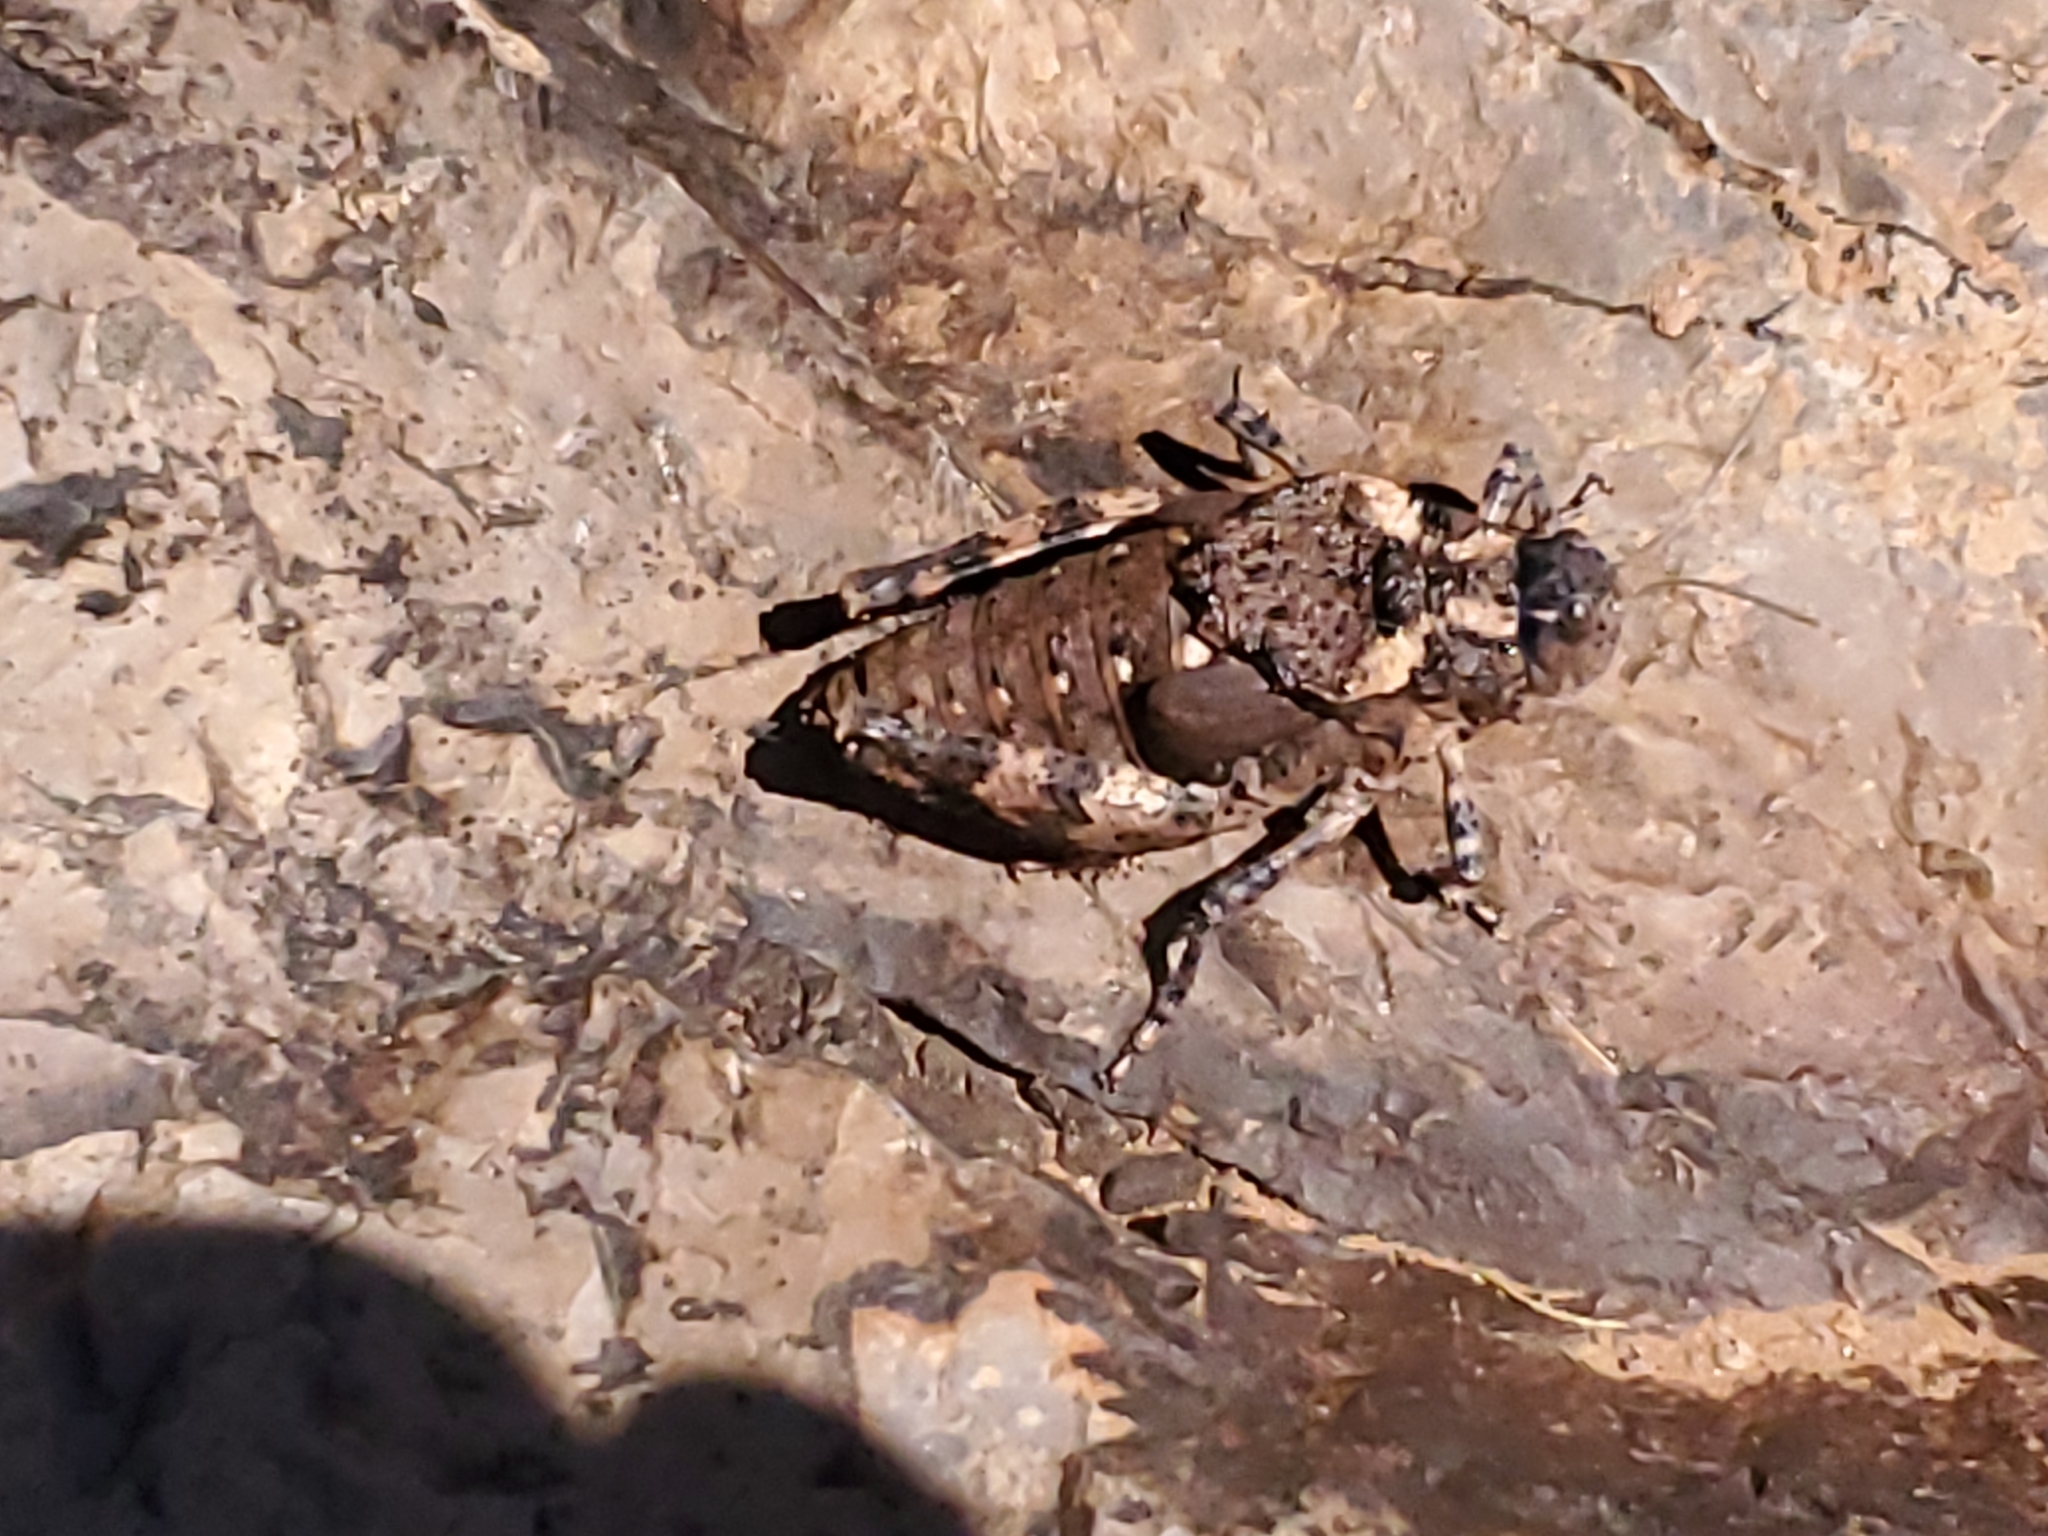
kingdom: Animalia
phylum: Arthropoda
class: Insecta
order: Orthoptera
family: Romaleidae
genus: Phrynotettix
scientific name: Phrynotettix robustus
